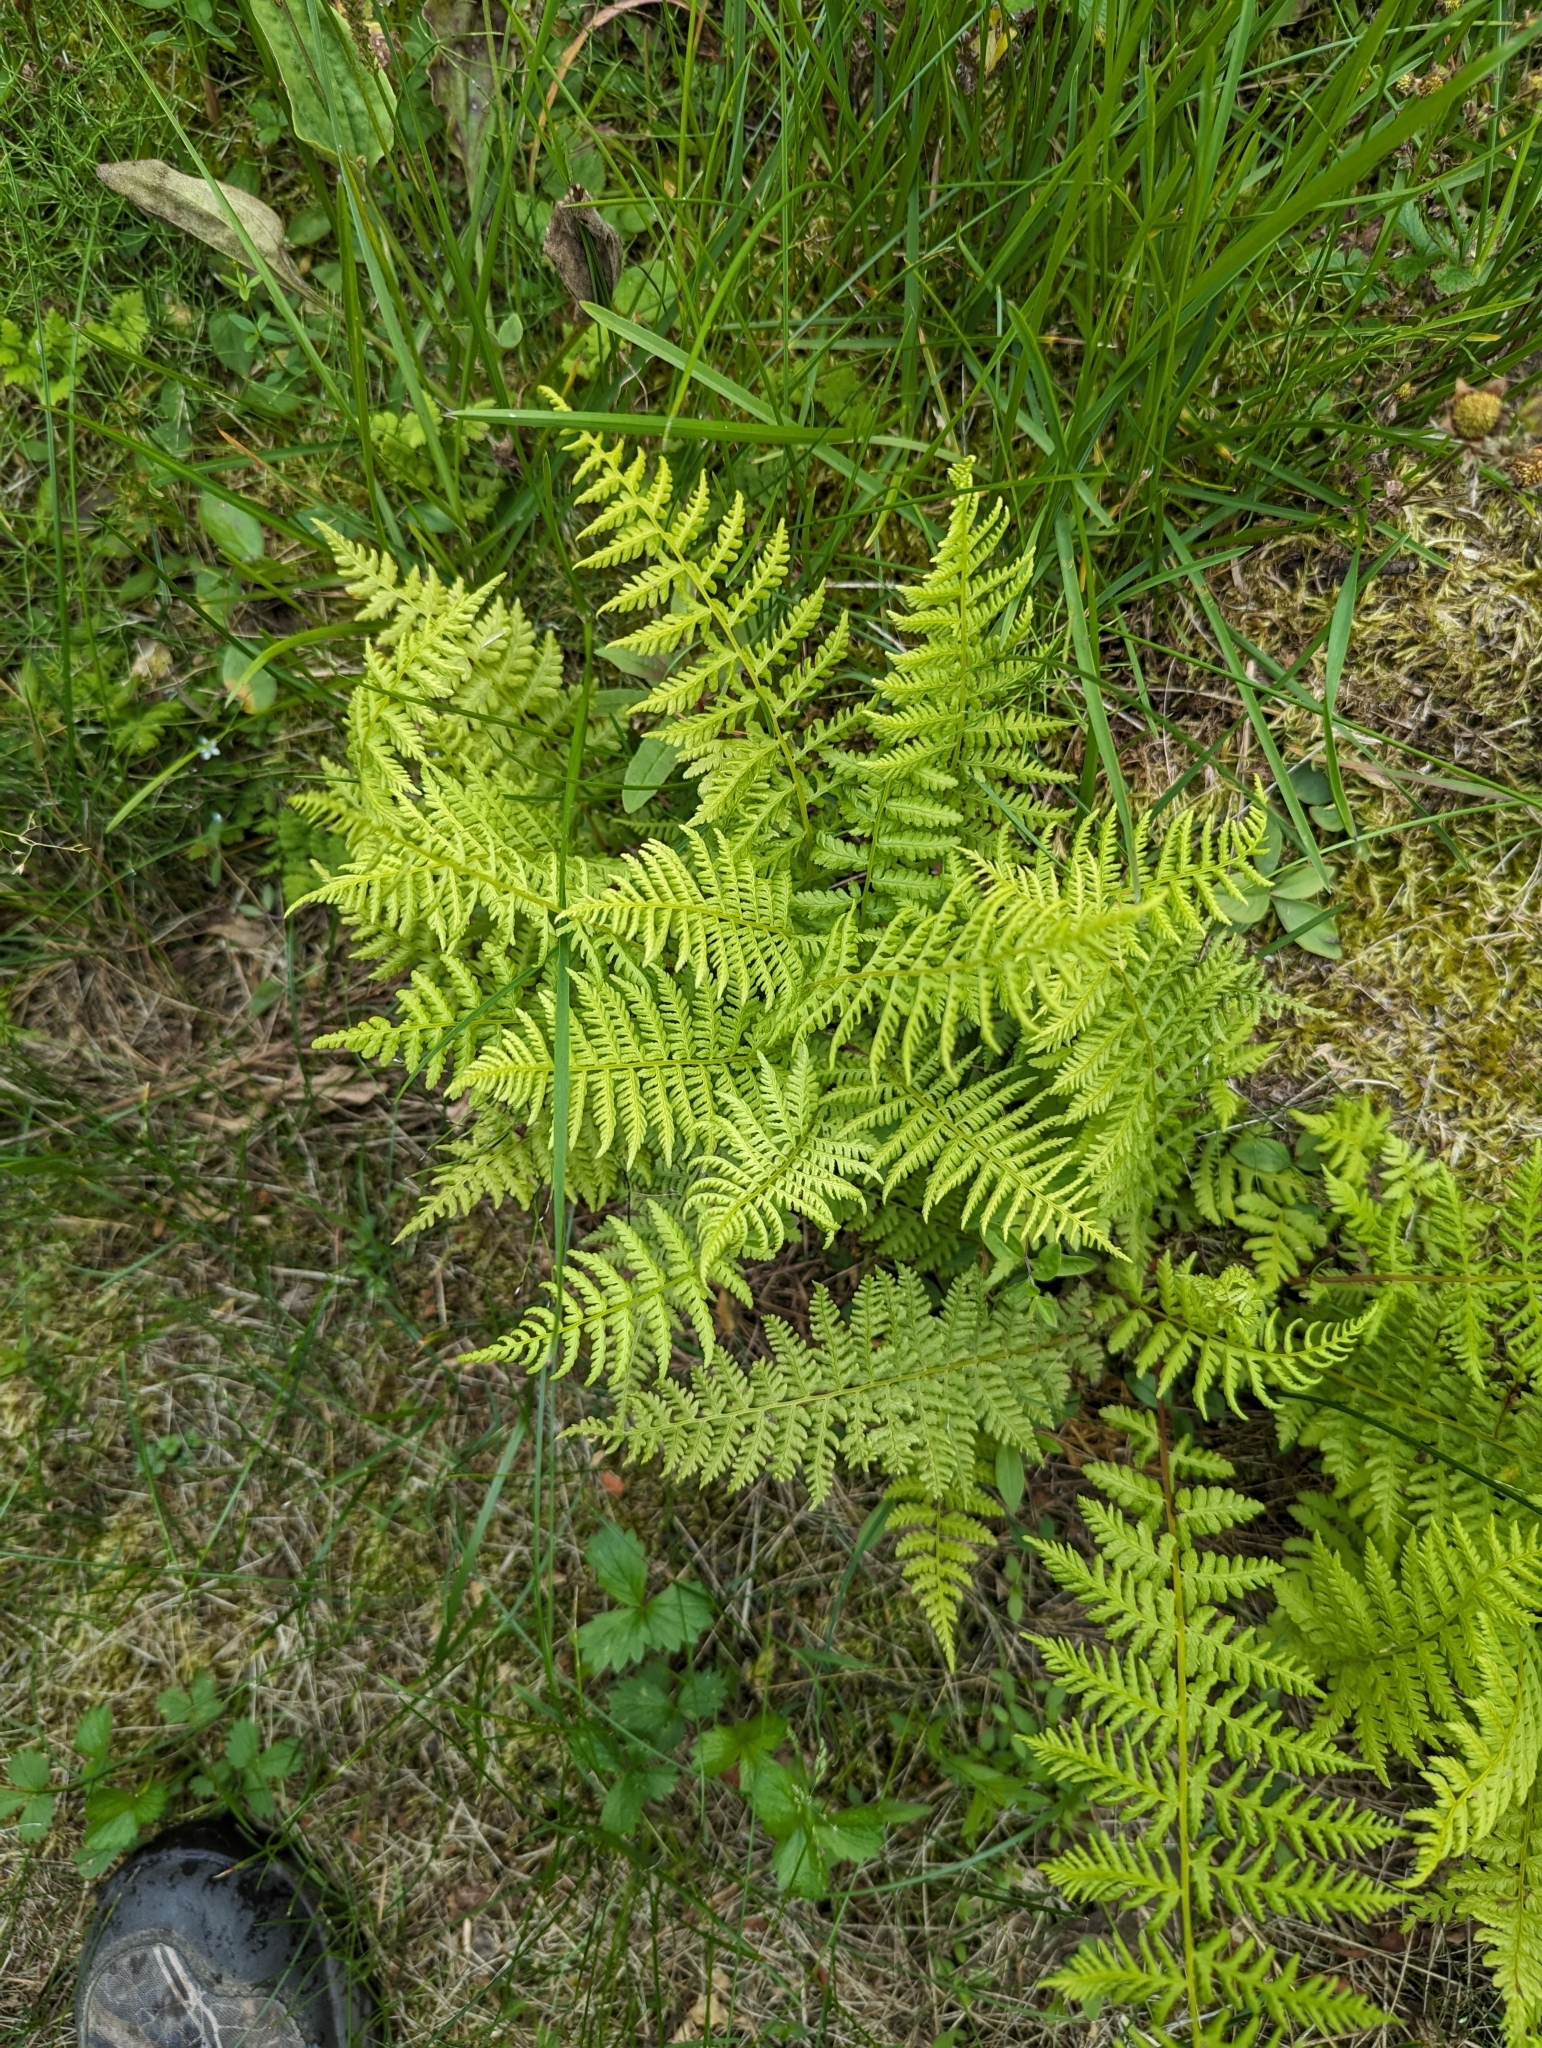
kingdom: Plantae
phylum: Tracheophyta
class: Polypodiopsida
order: Polypodiales
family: Athyriaceae
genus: Athyrium
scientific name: Athyrium cyclosorum
